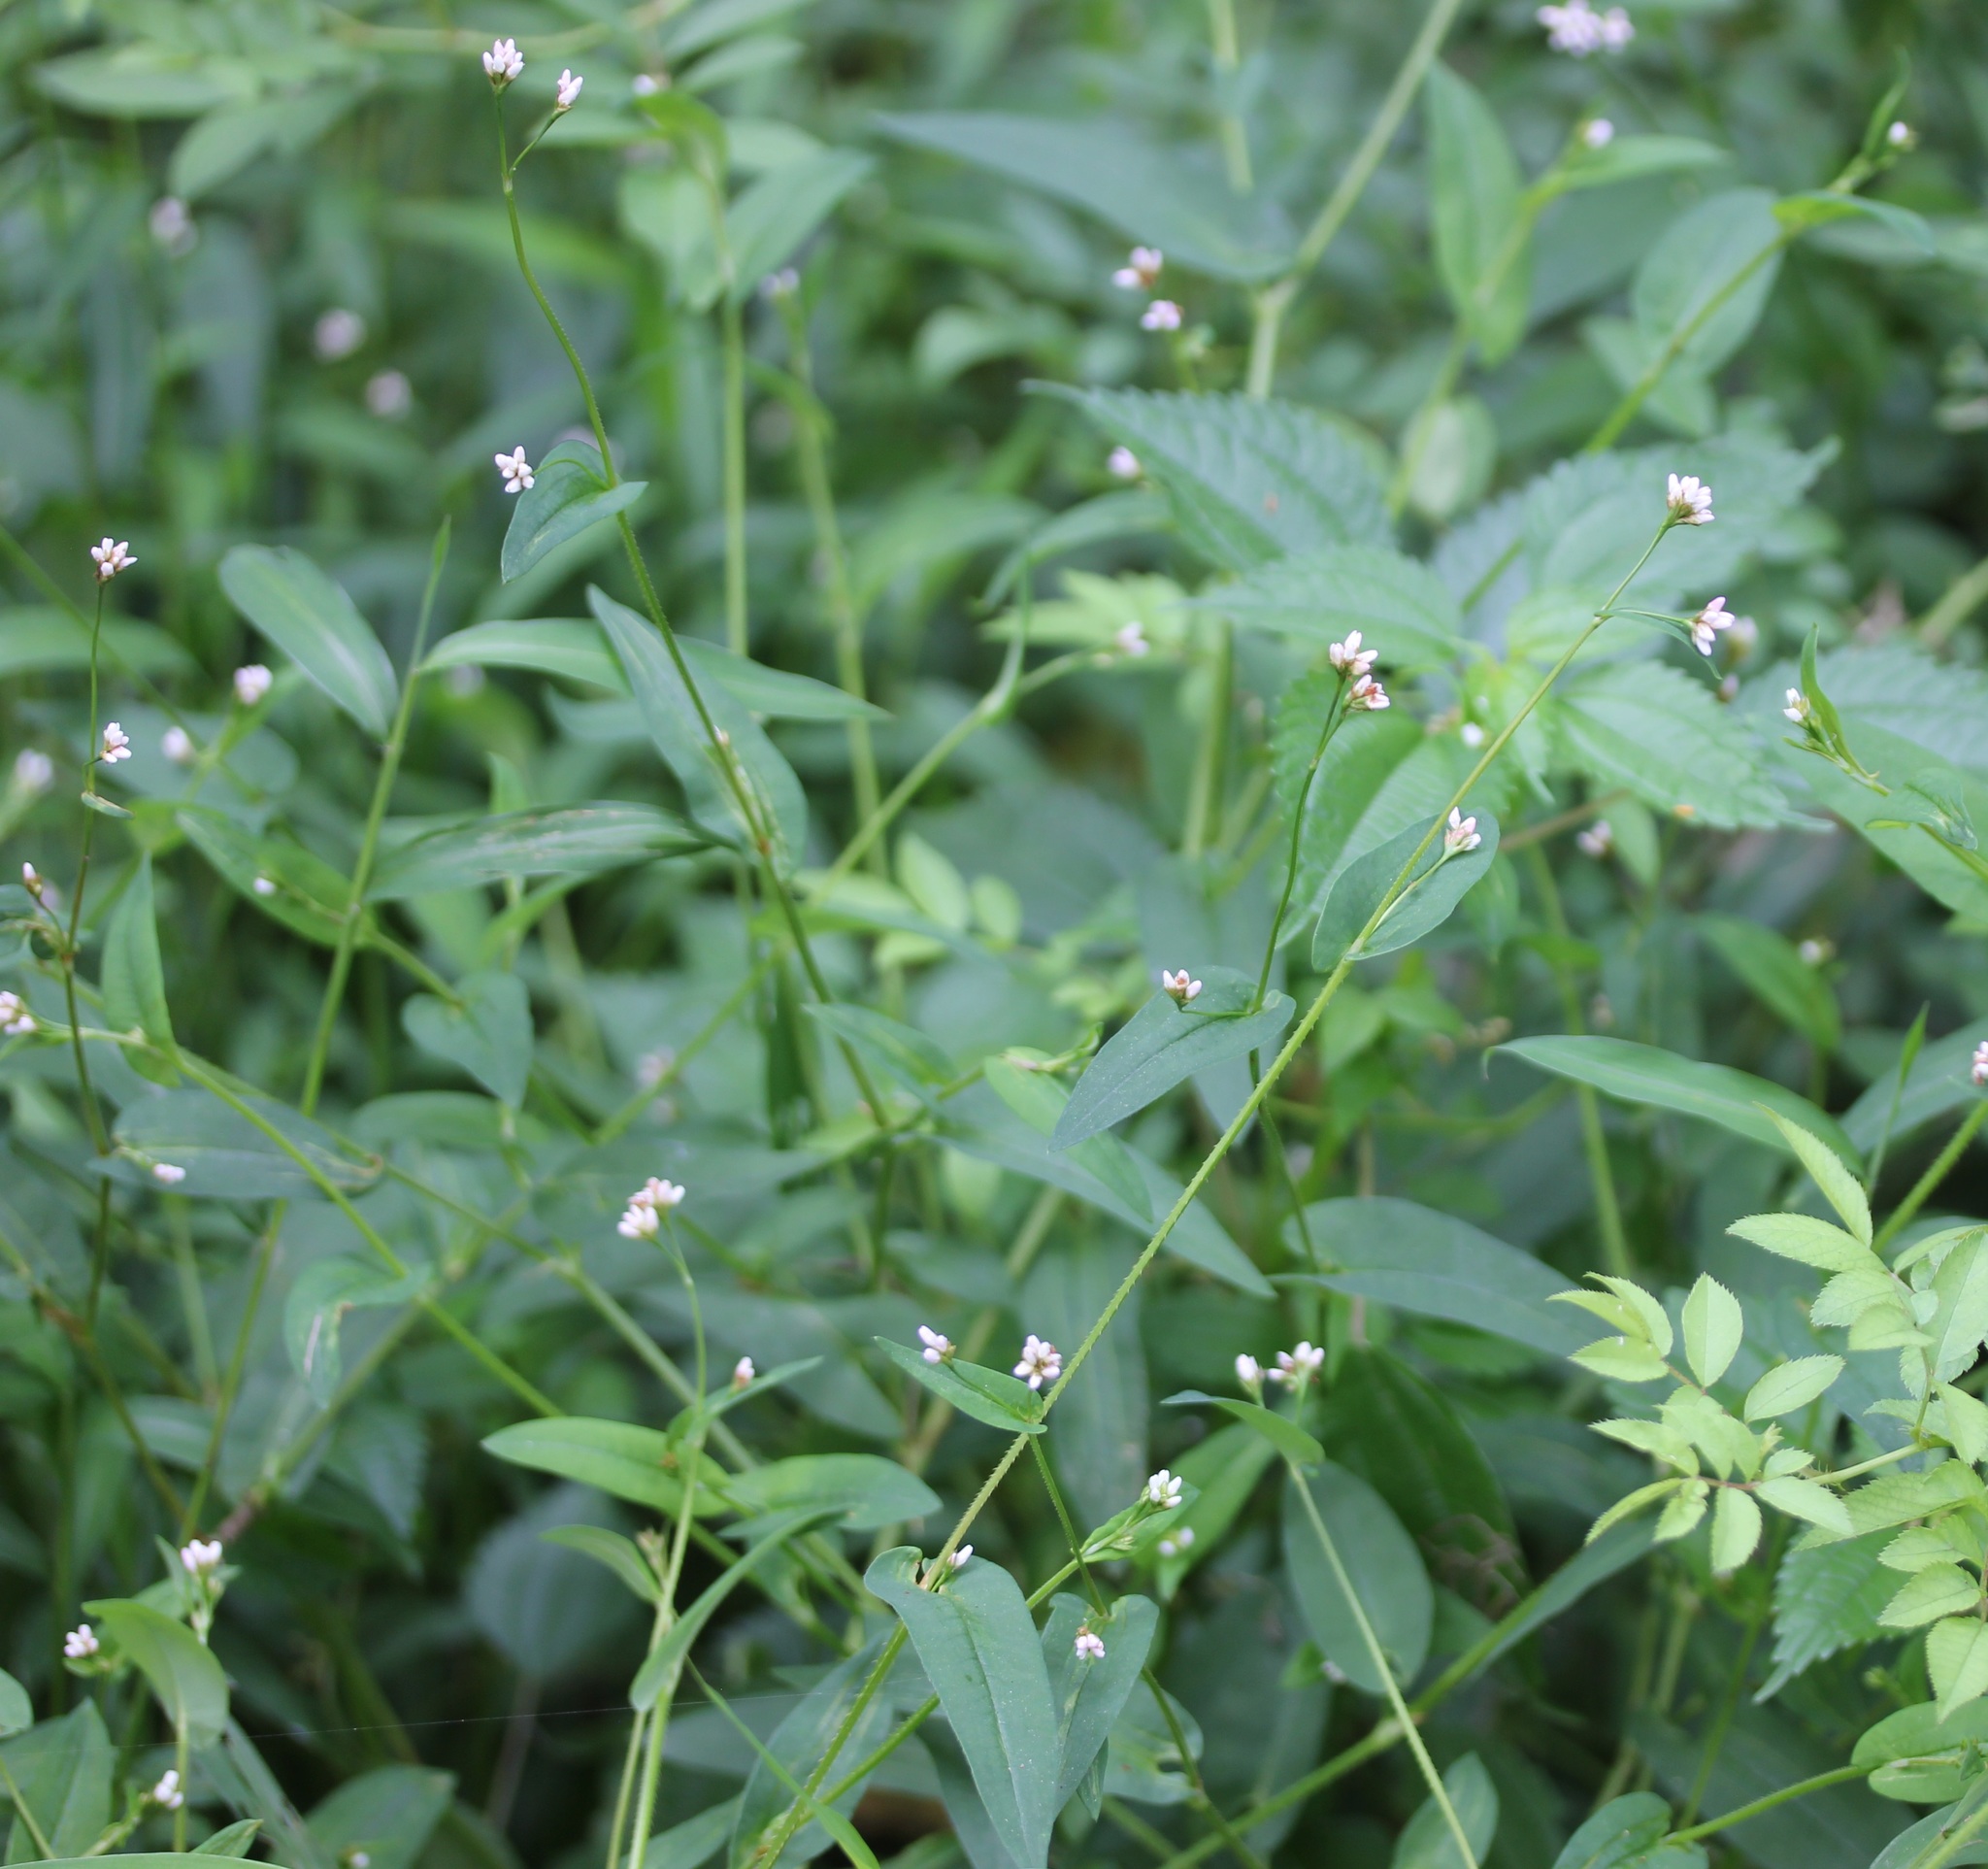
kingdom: Plantae
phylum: Tracheophyta
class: Magnoliopsida
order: Caryophyllales
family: Polygonaceae
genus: Persicaria
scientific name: Persicaria sagittata
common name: American tearthumb
